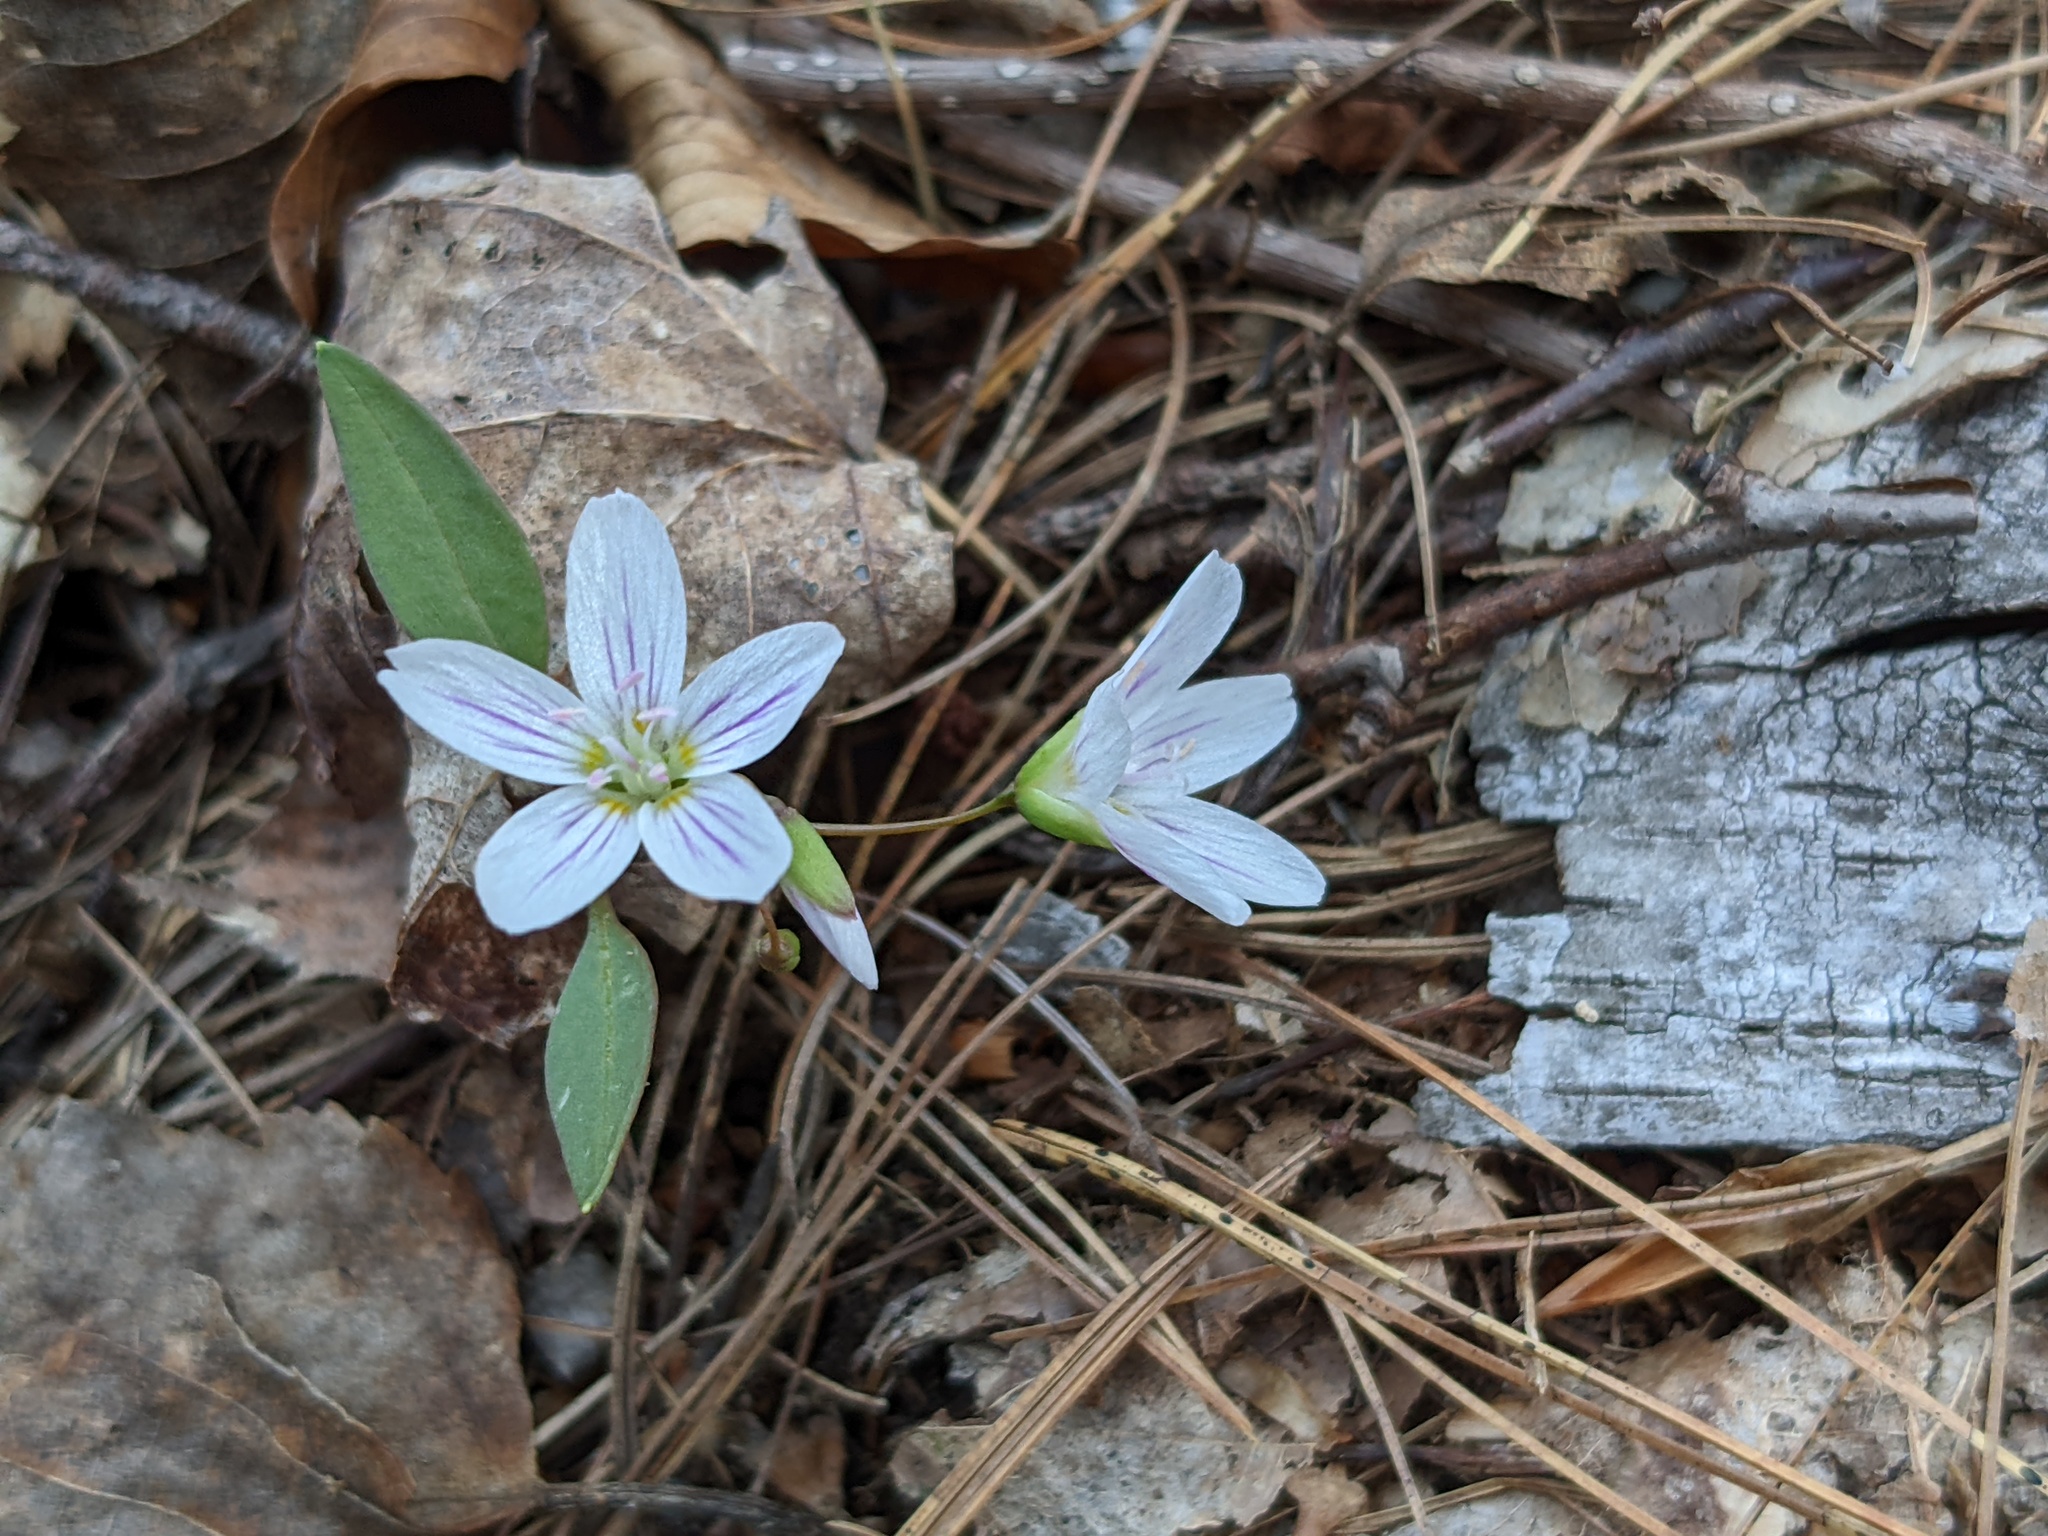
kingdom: Plantae
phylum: Tracheophyta
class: Magnoliopsida
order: Caryophyllales
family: Montiaceae
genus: Claytonia
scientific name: Claytonia caroliniana
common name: Carolina spring beauty
